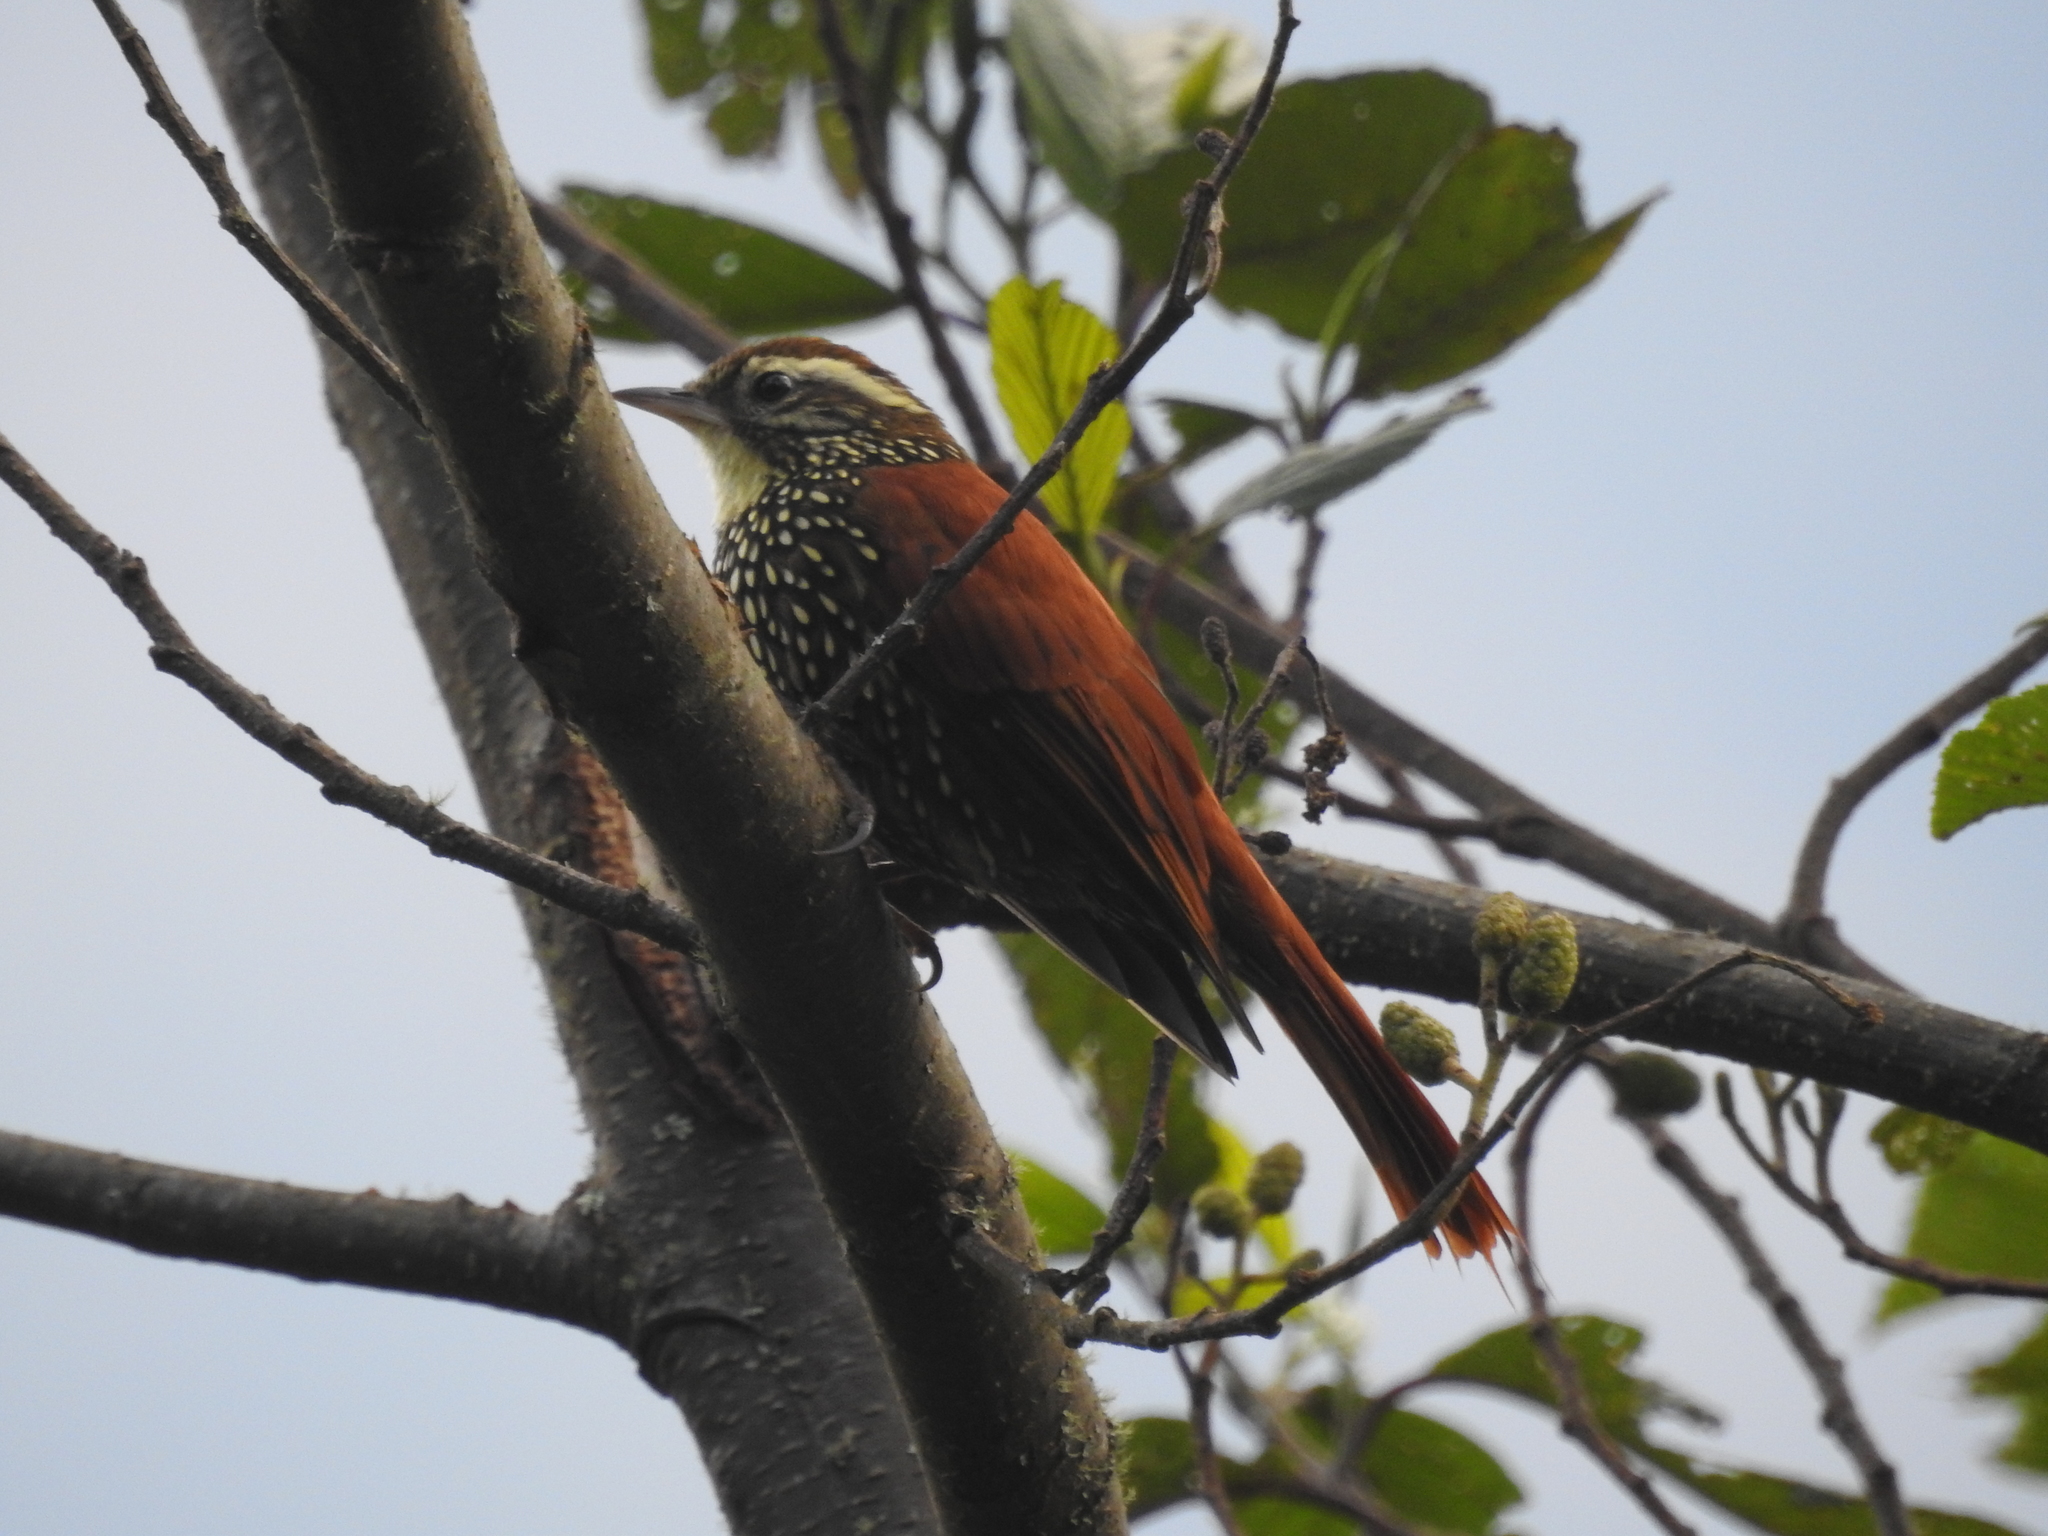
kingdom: Animalia
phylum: Chordata
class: Aves
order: Passeriformes
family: Furnariidae
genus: Margarornis
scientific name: Margarornis squamiger
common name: Pearled treerunner
